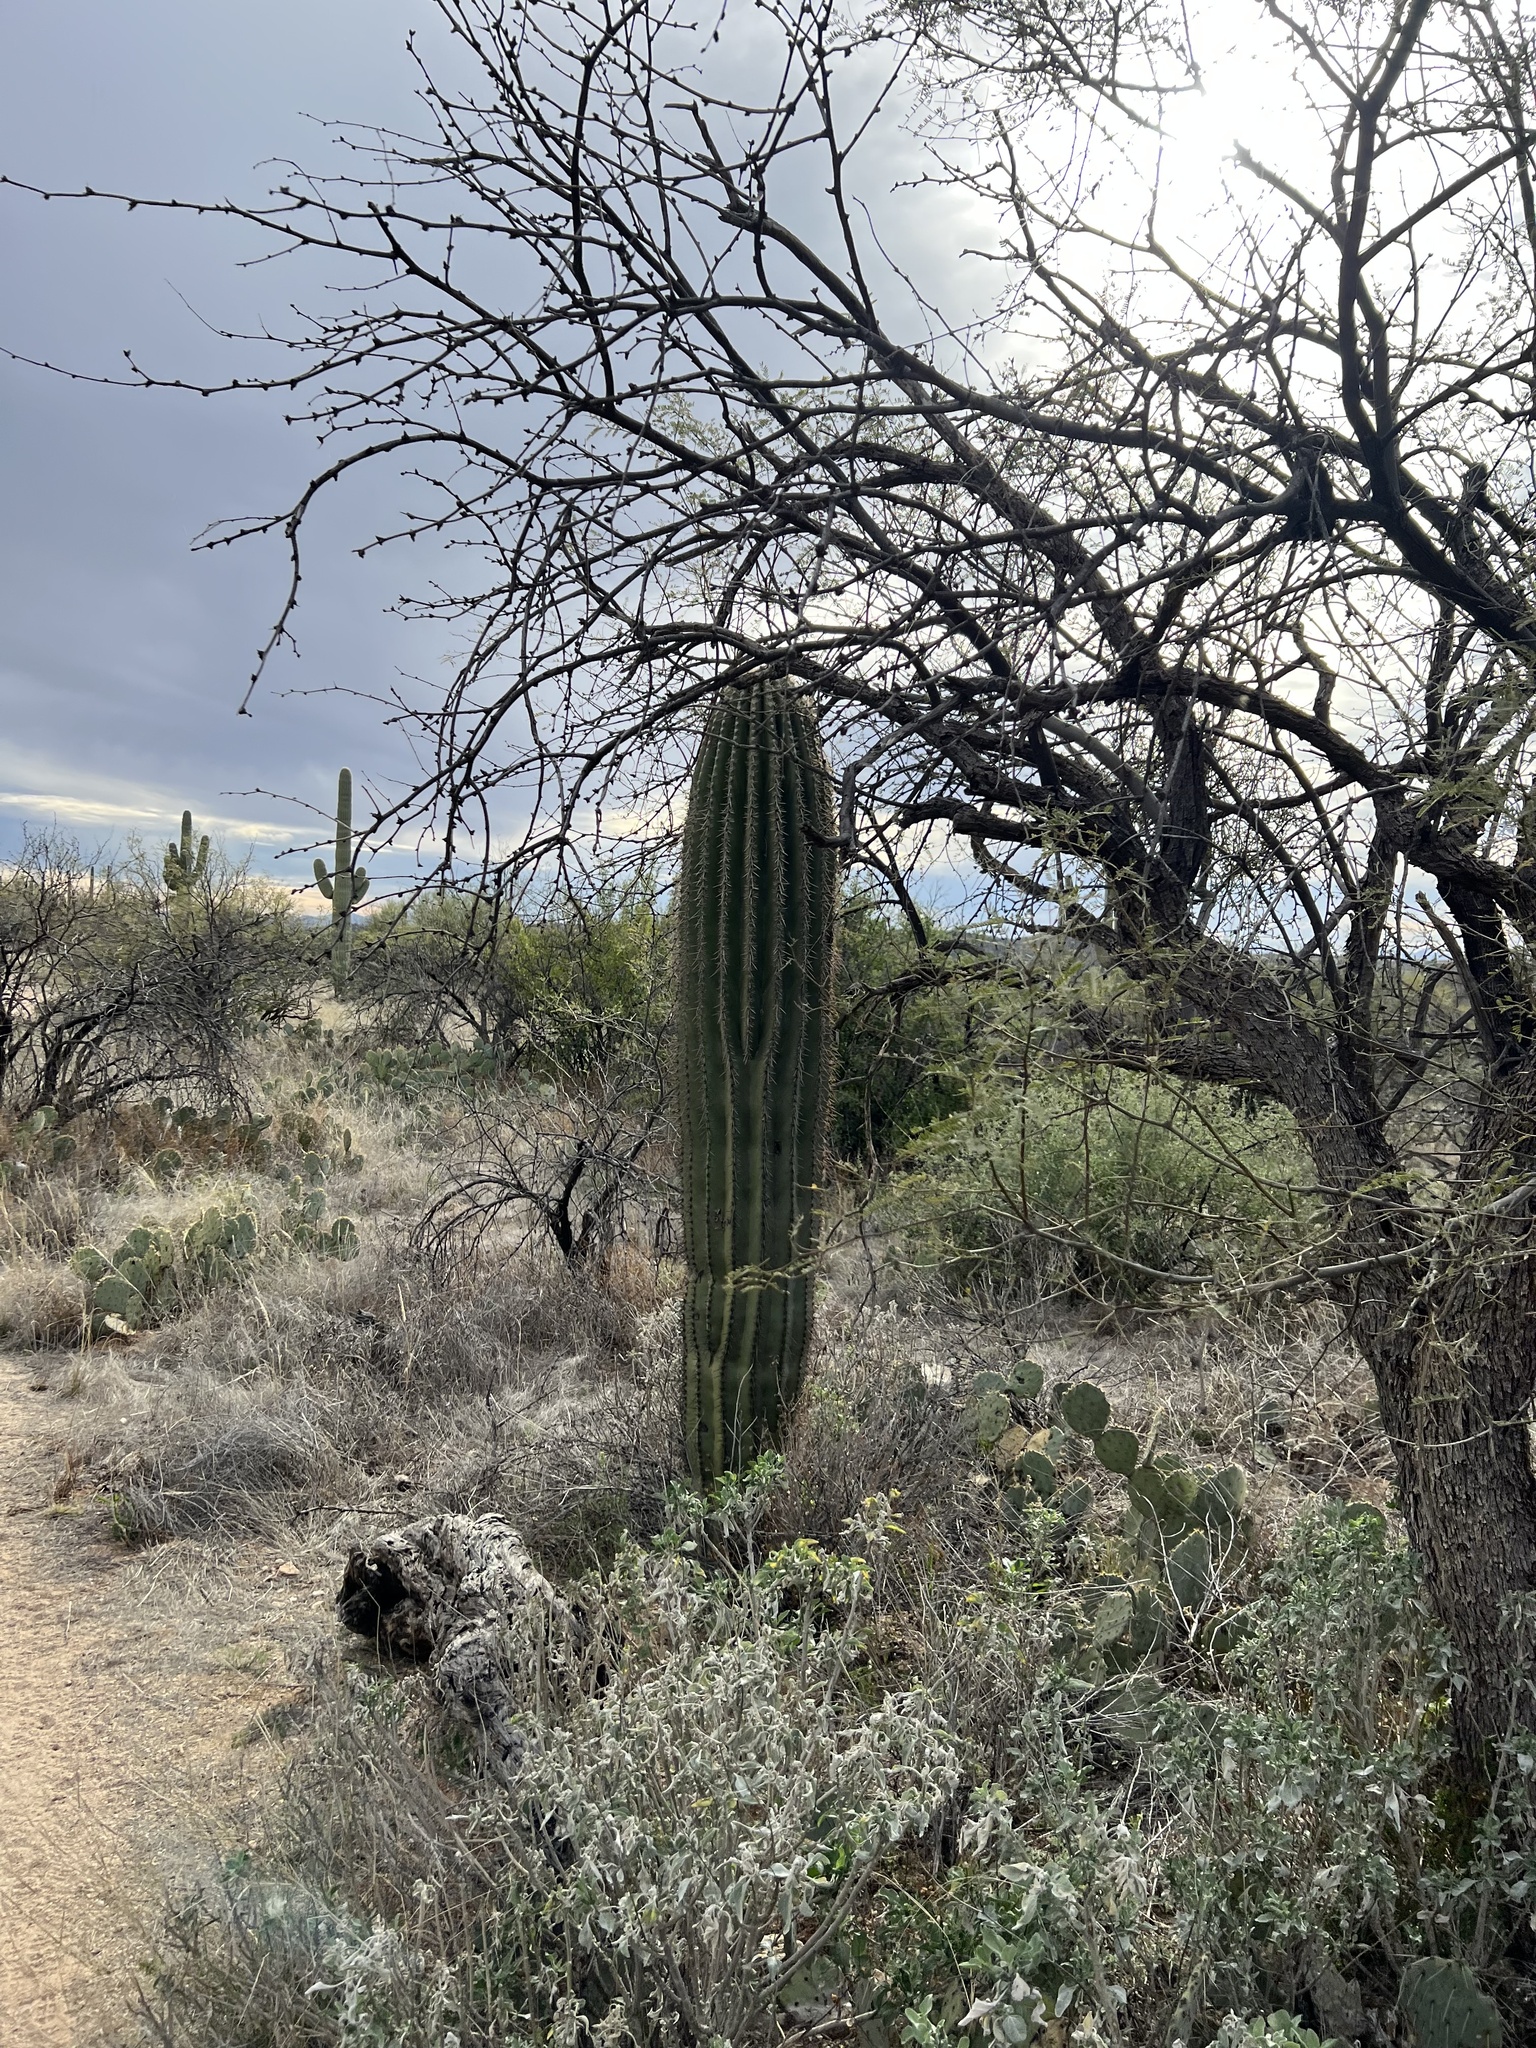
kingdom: Plantae
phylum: Tracheophyta
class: Magnoliopsida
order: Caryophyllales
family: Cactaceae
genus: Carnegiea
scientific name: Carnegiea gigantea
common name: Saguaro
